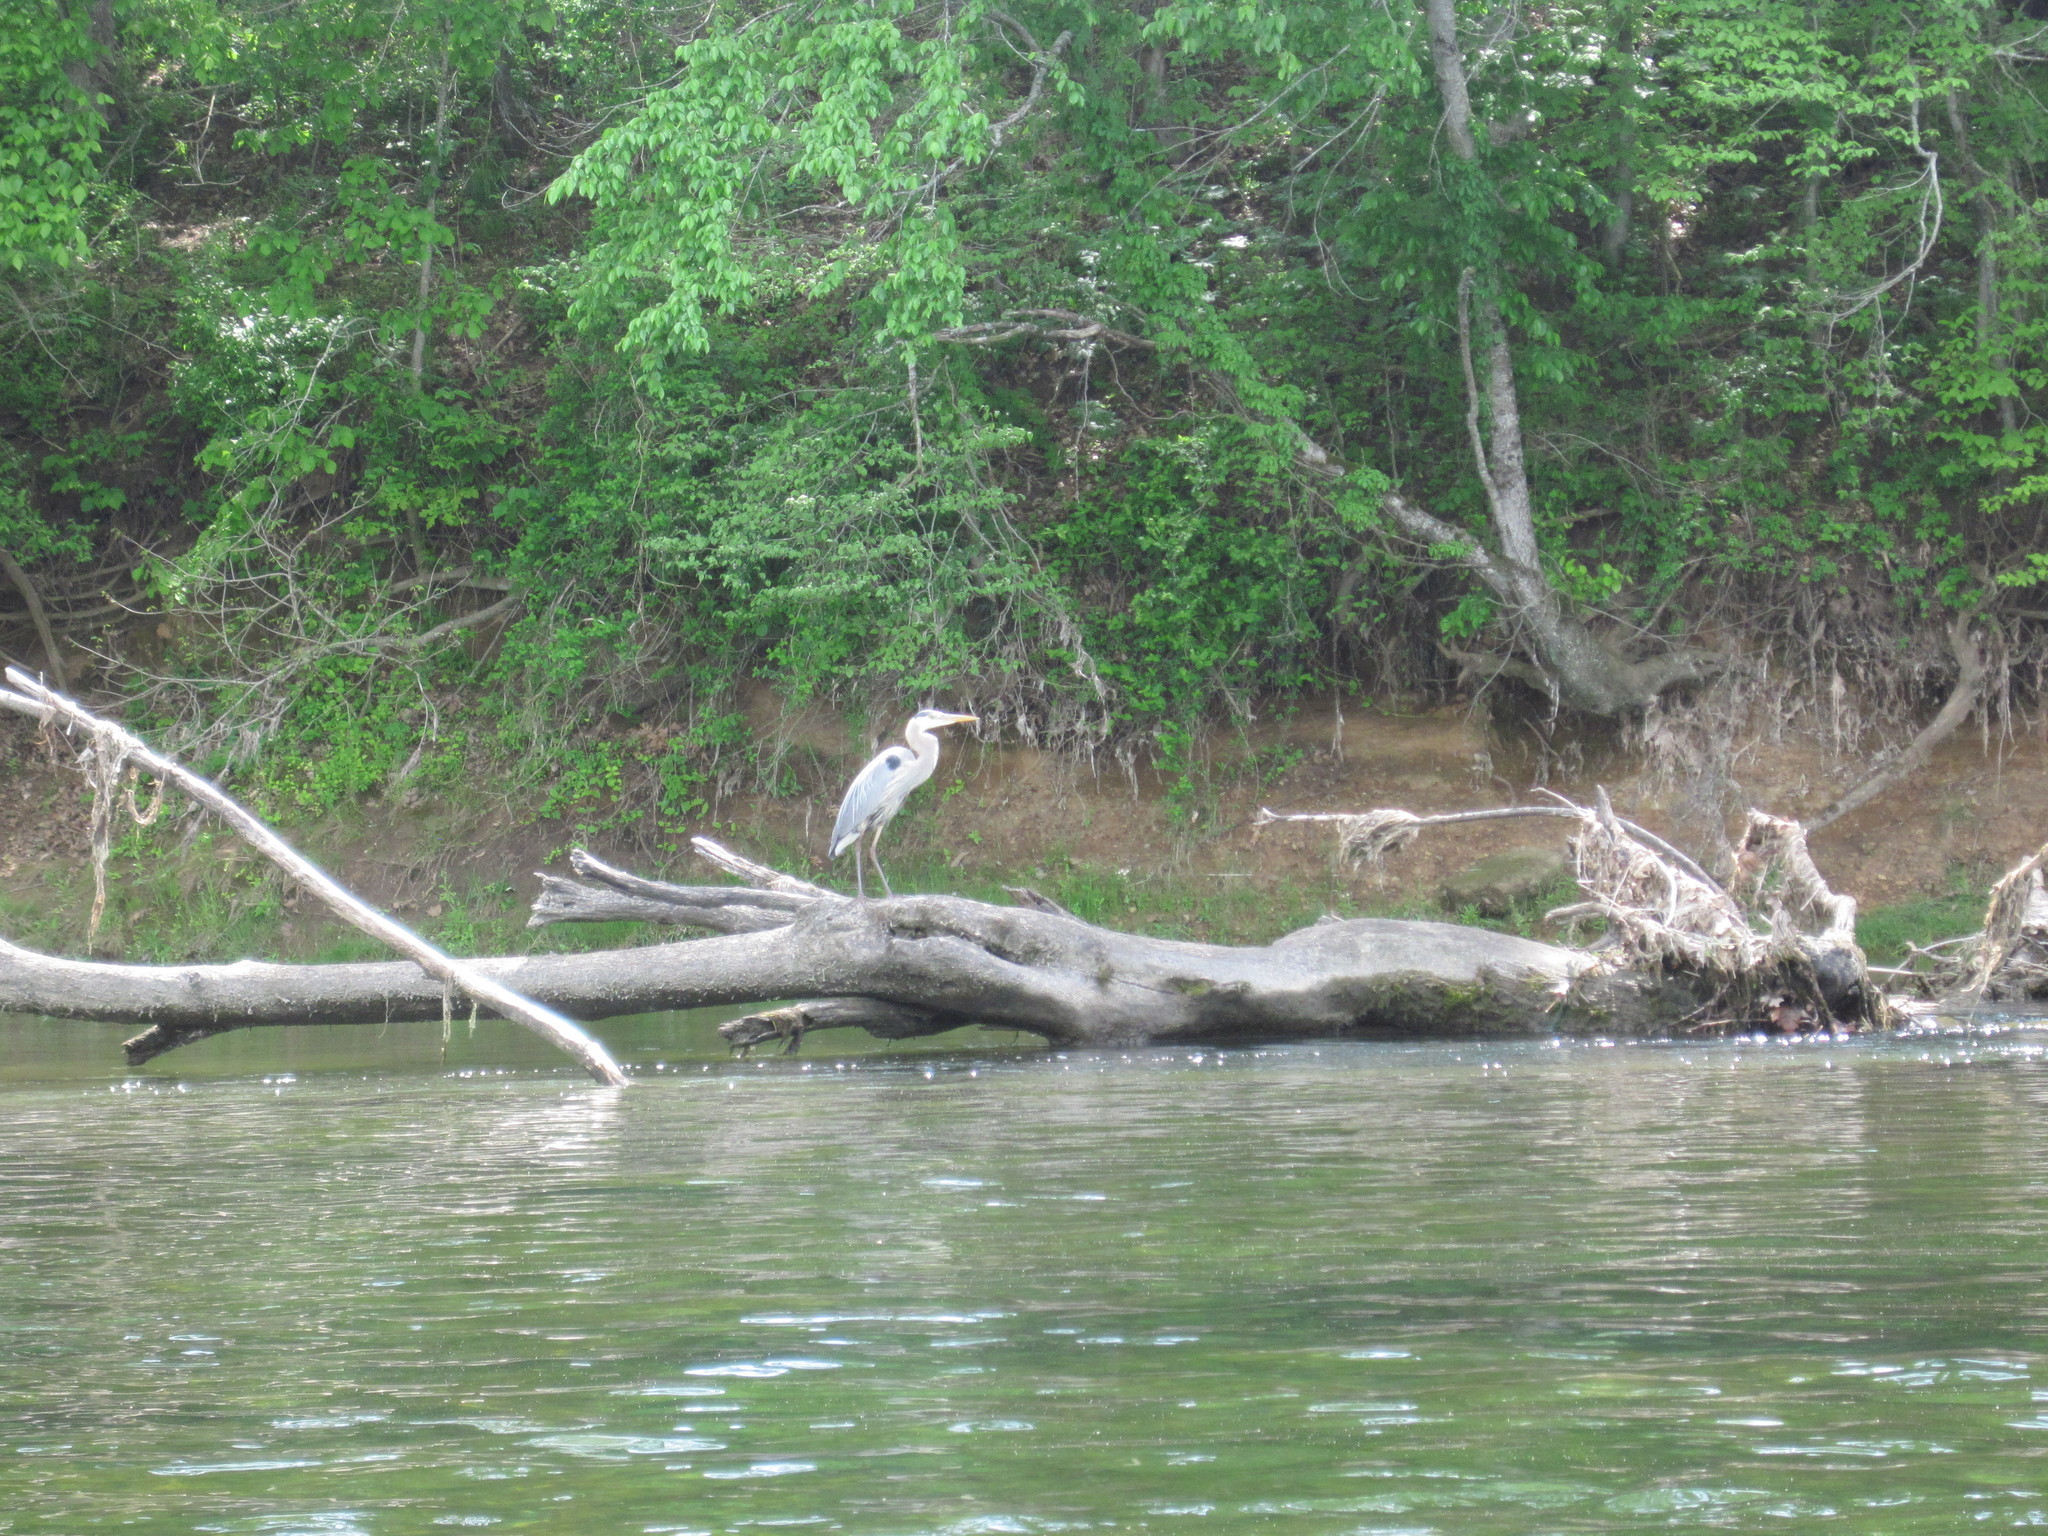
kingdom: Animalia
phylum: Chordata
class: Aves
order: Pelecaniformes
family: Ardeidae
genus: Ardea
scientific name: Ardea herodias
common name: Great blue heron
